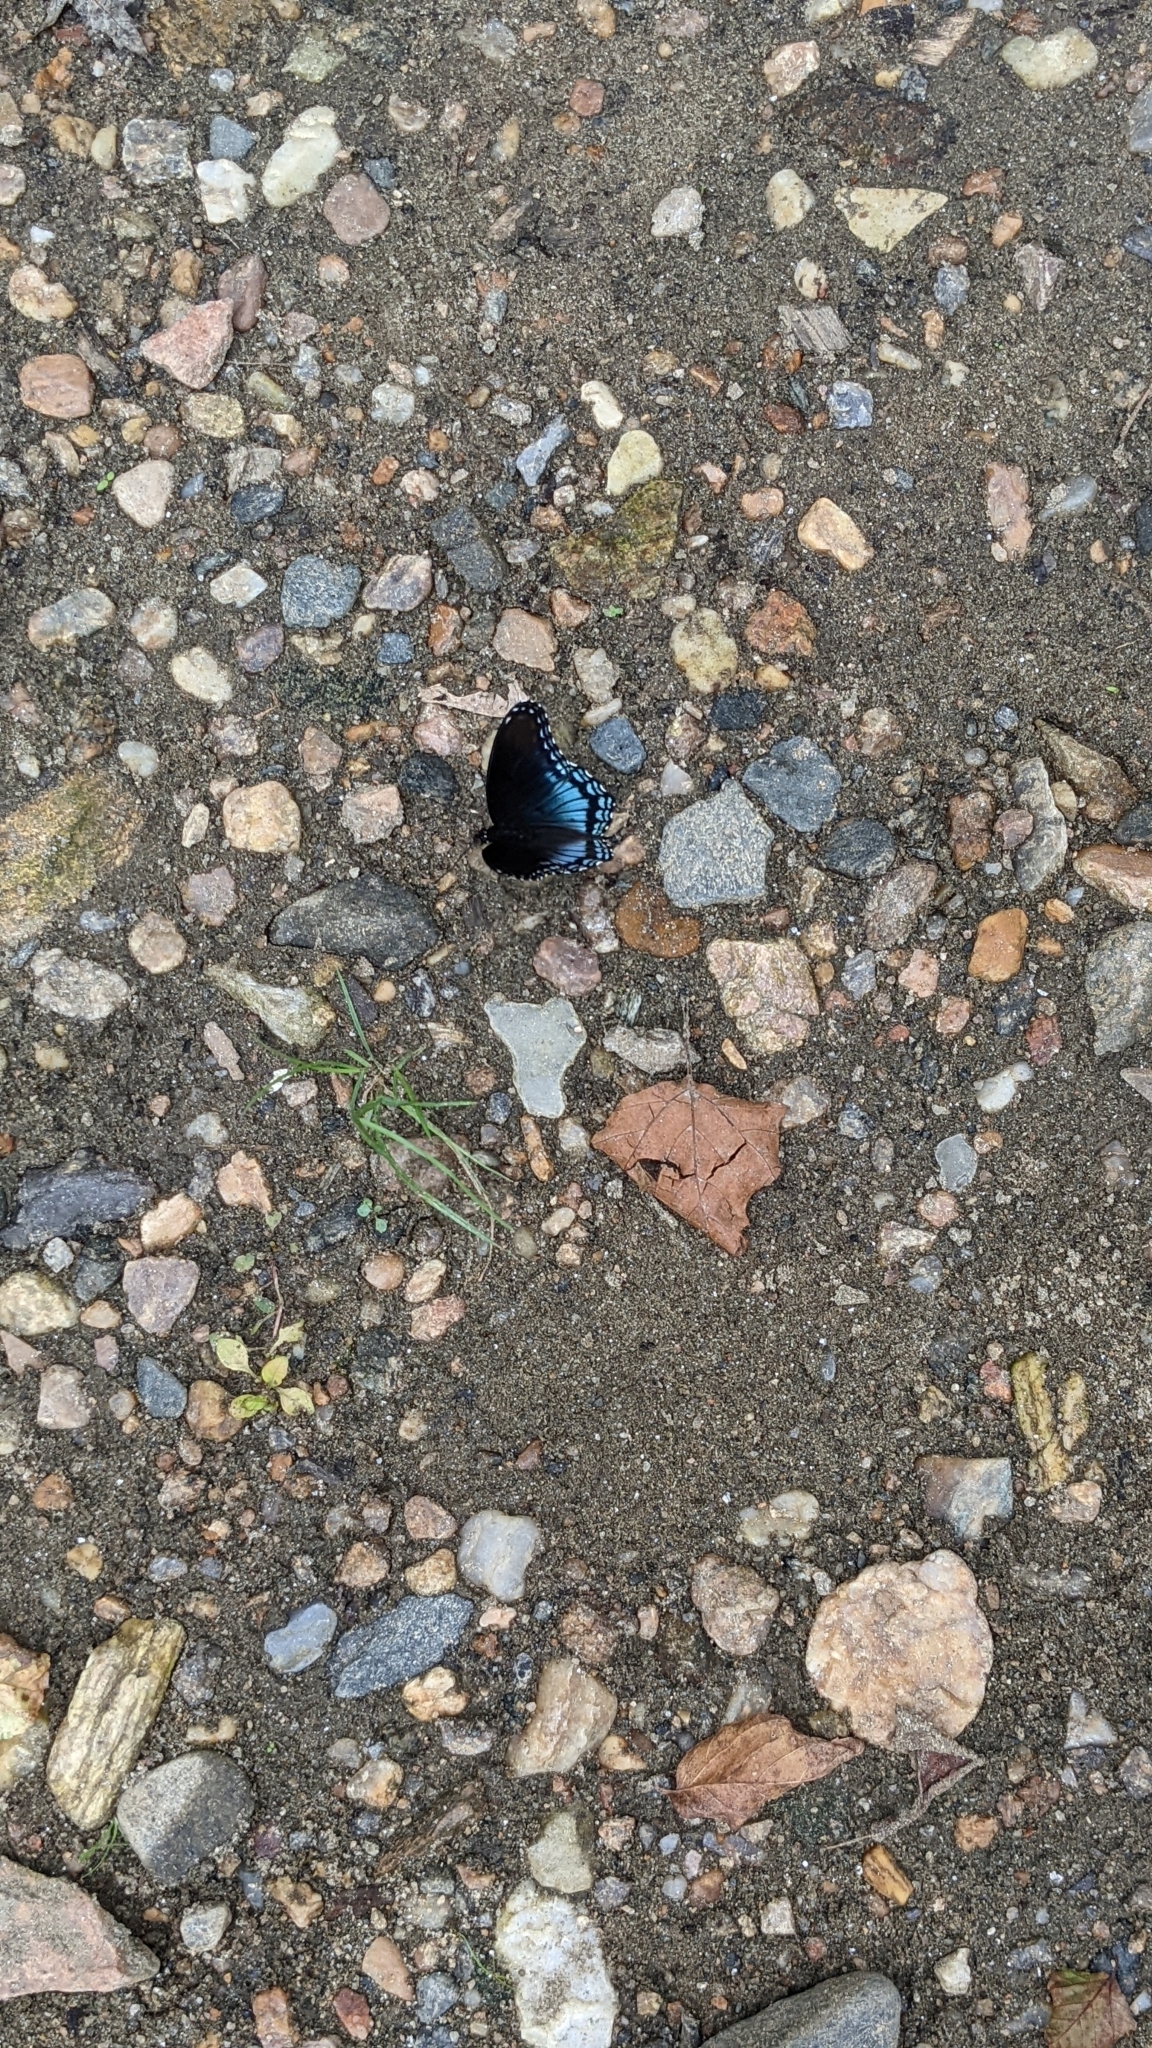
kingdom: Animalia
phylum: Arthropoda
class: Insecta
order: Lepidoptera
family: Nymphalidae
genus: Limenitis
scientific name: Limenitis astyanax
